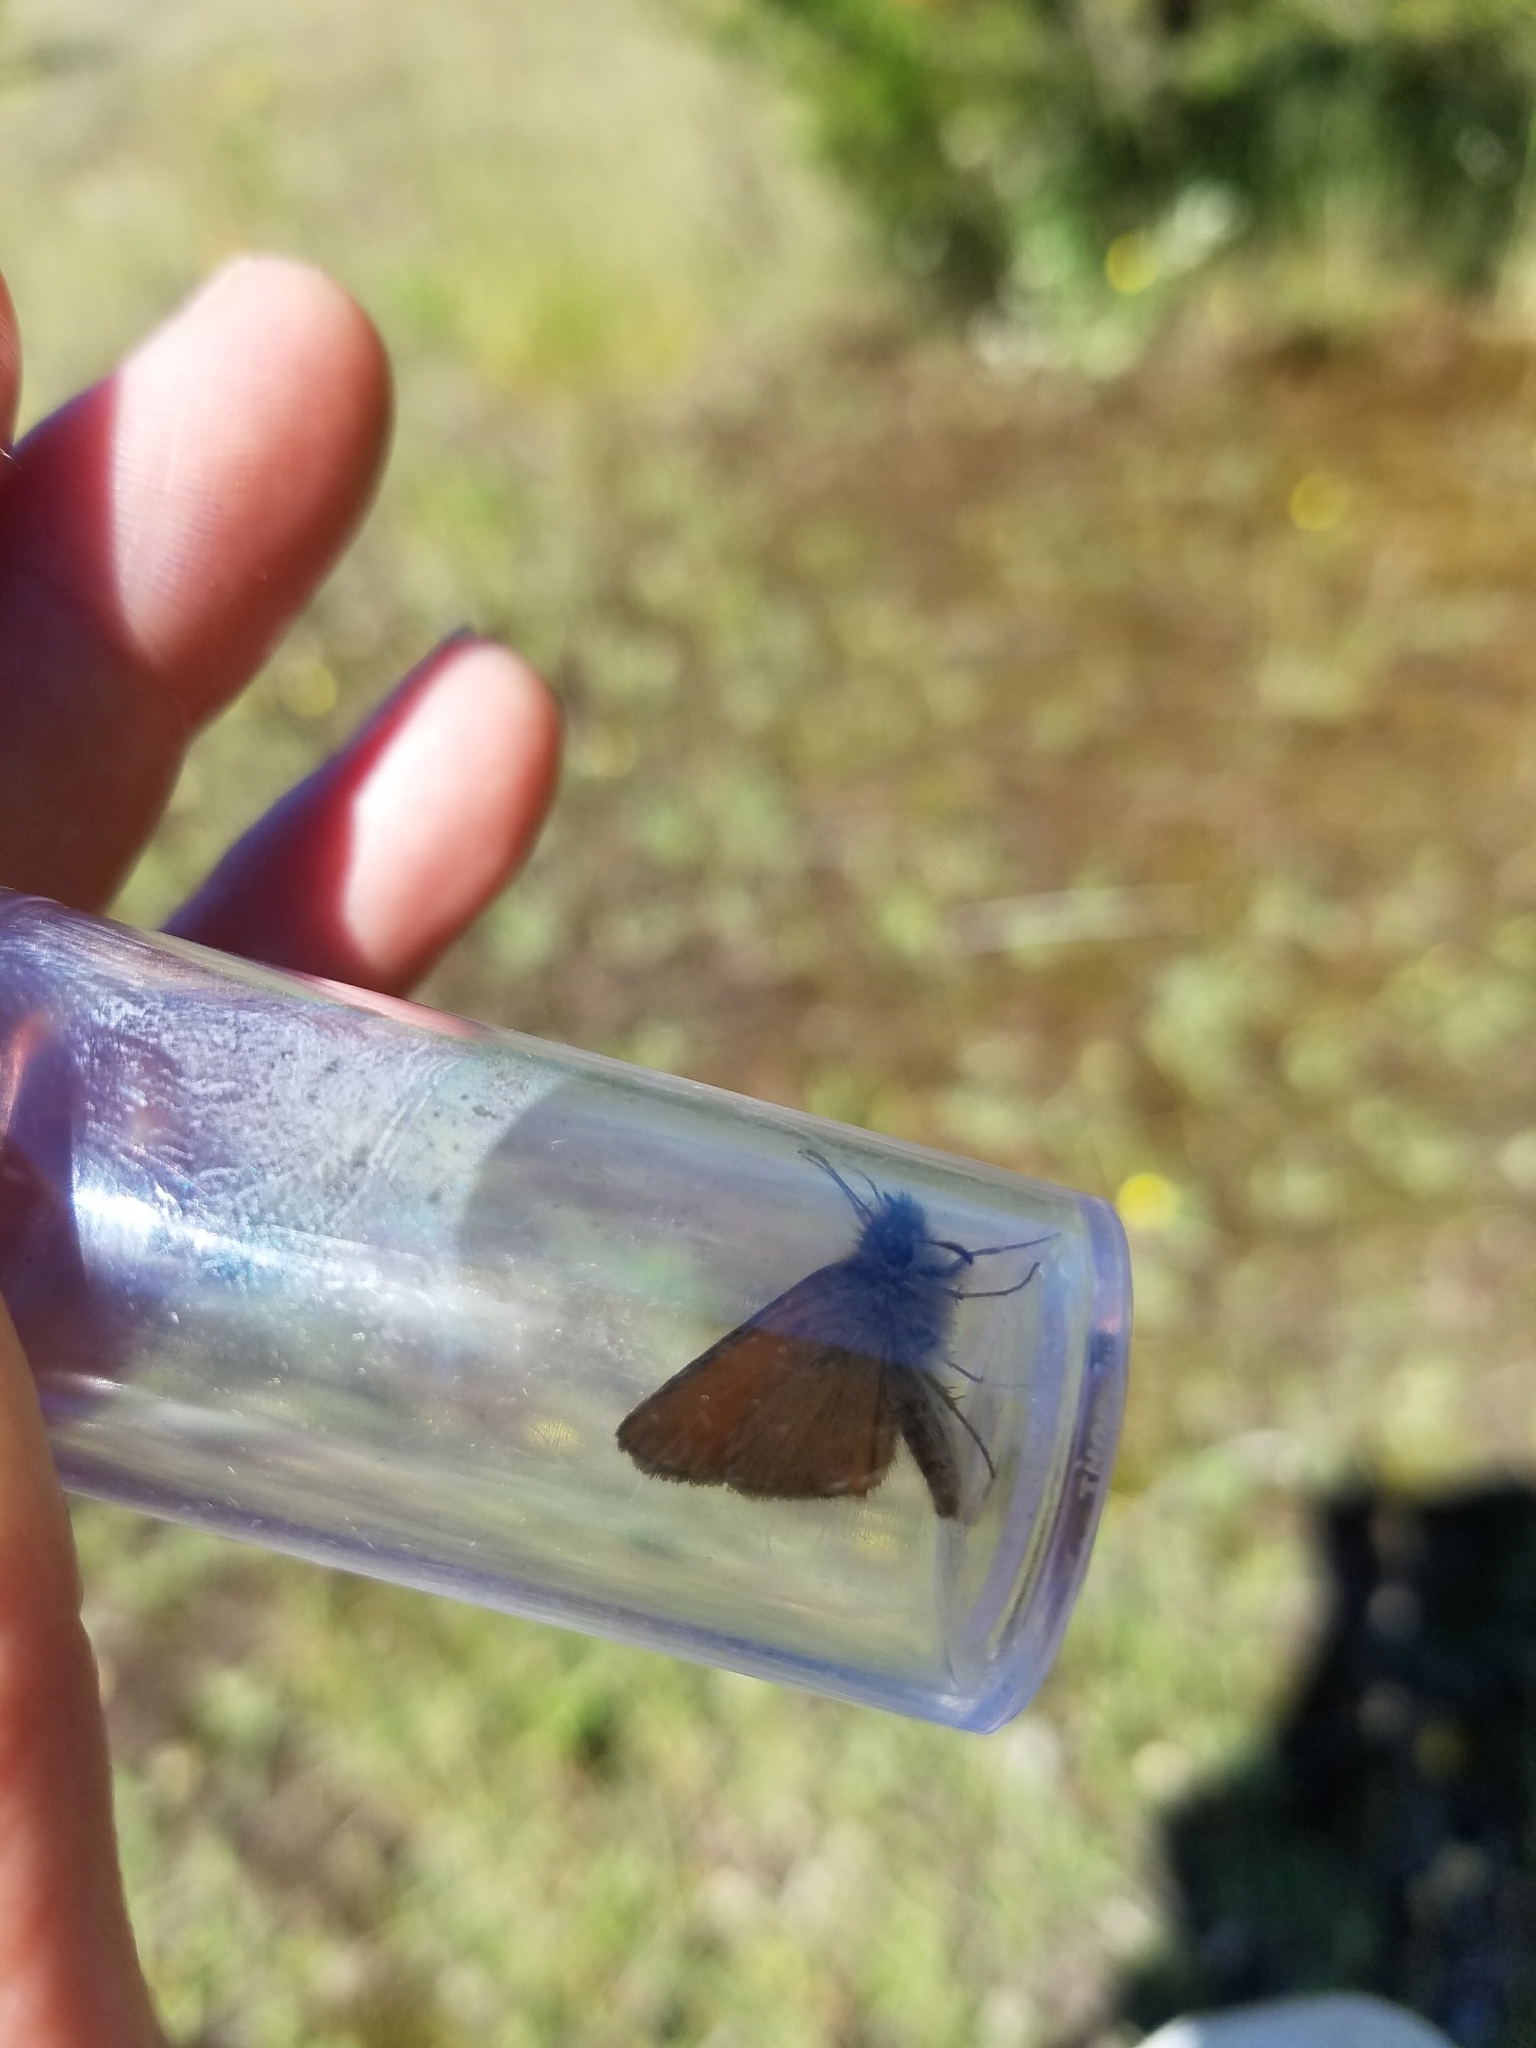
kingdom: Animalia
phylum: Arthropoda
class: Insecta
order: Lepidoptera
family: Hesperiidae
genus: Thymelicus
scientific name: Thymelicus lineola
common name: Essex skipper
